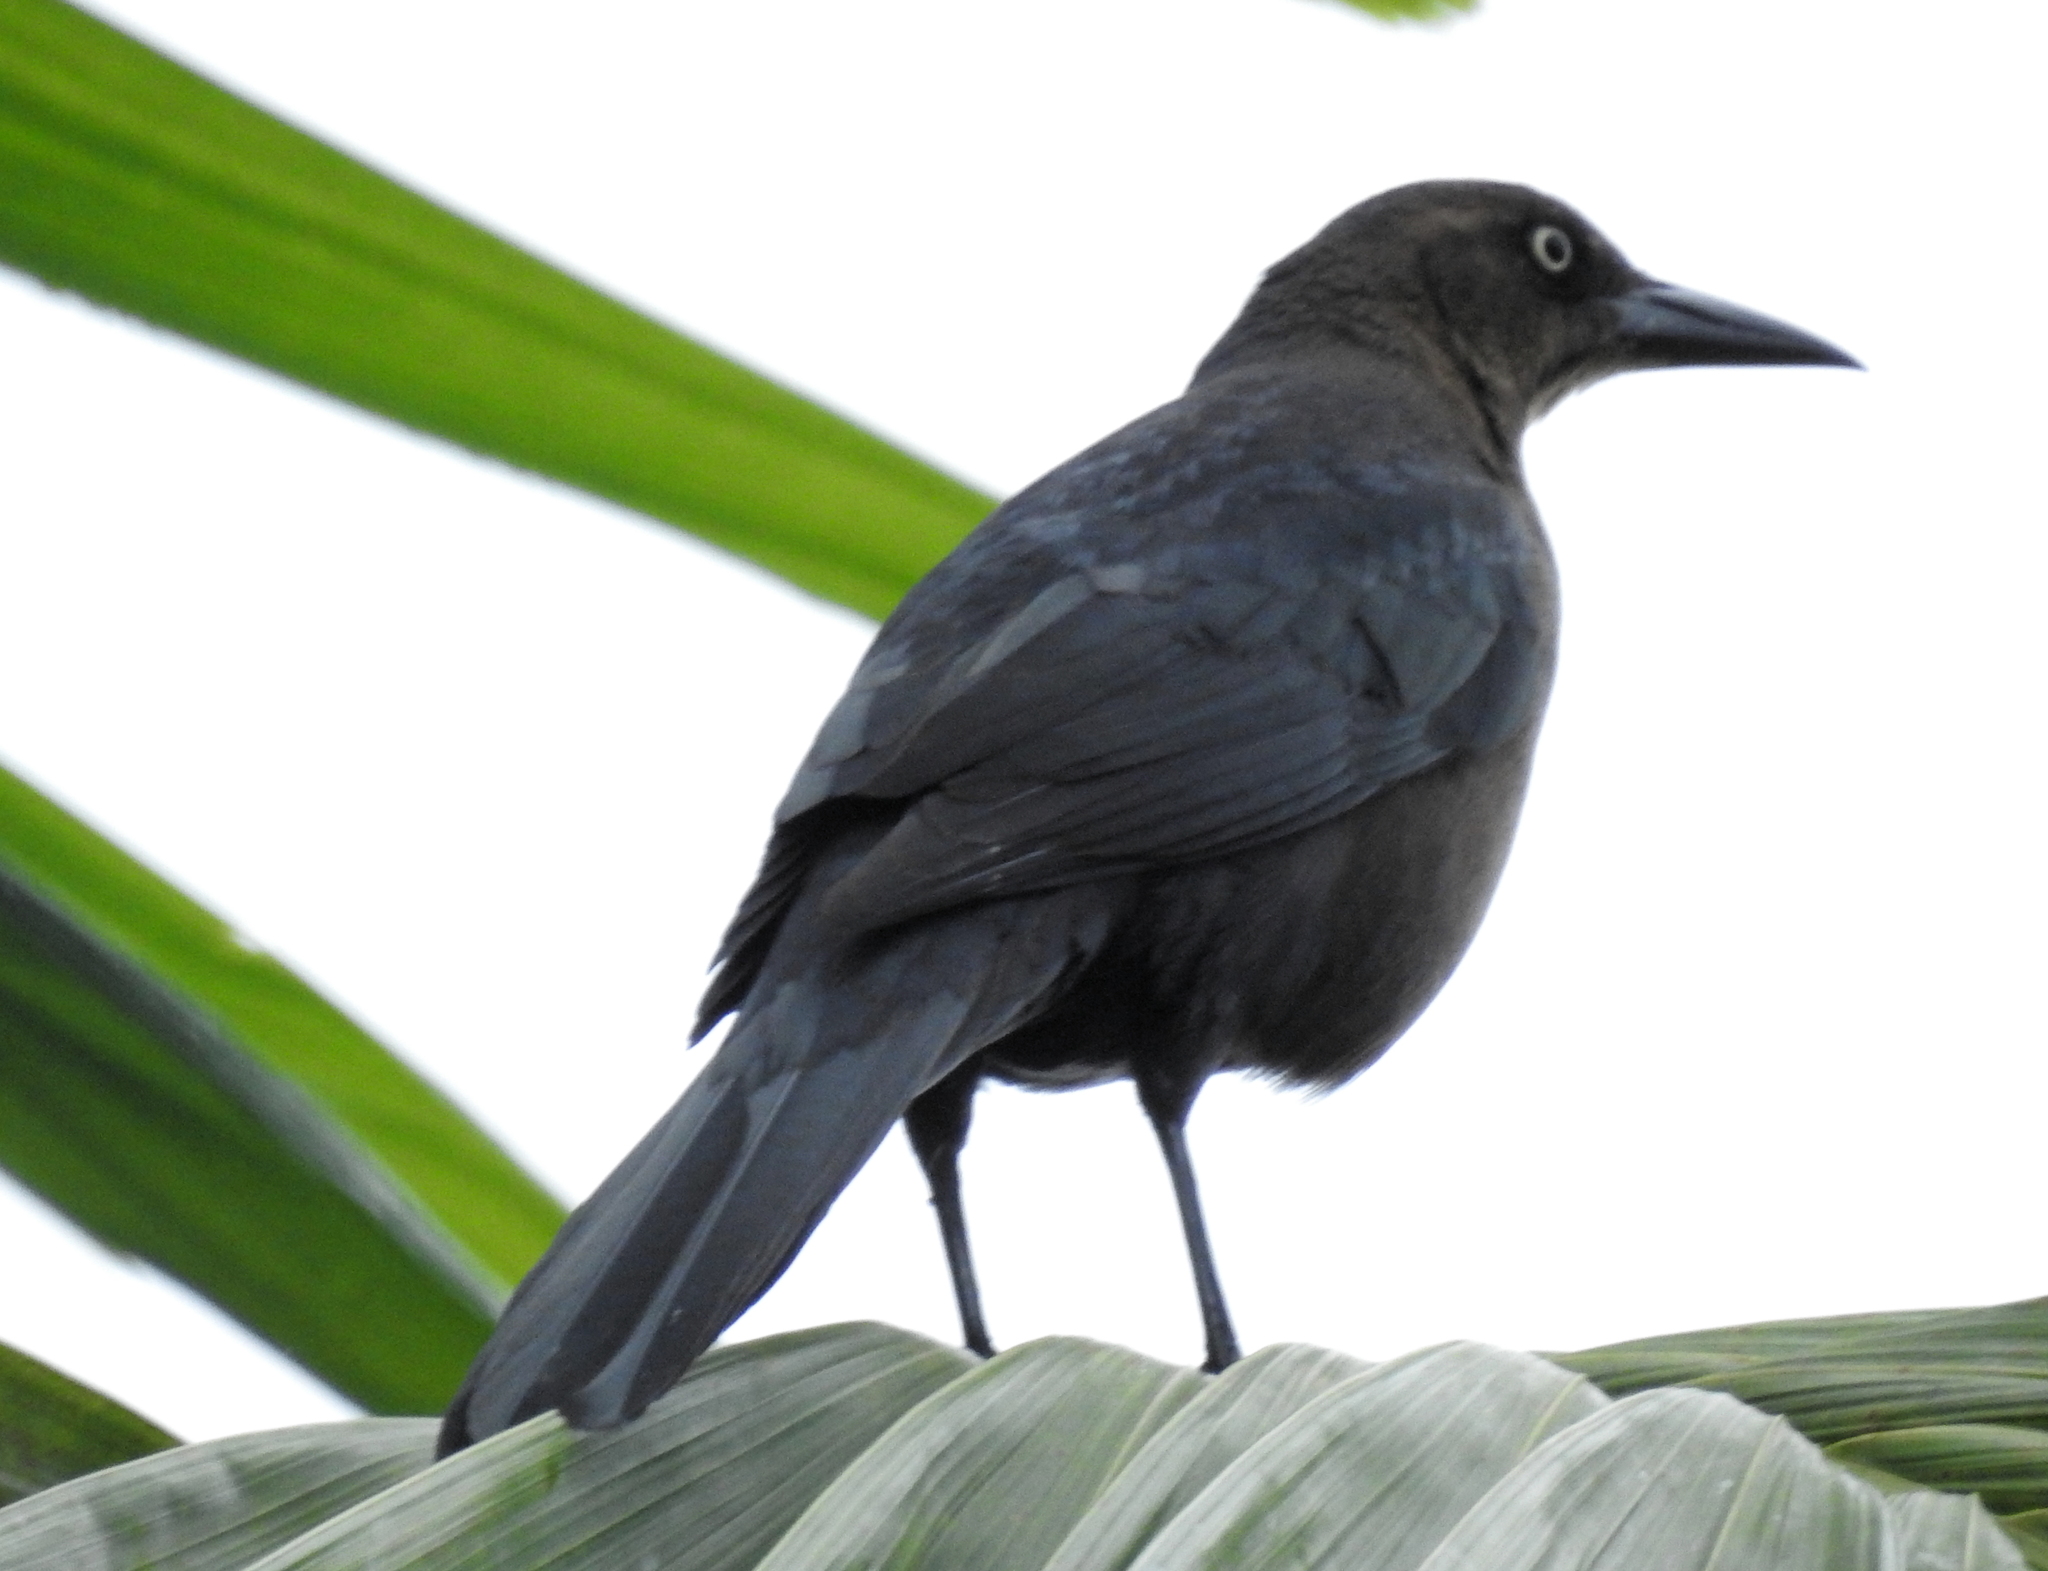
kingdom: Animalia
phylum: Chordata
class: Aves
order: Passeriformes
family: Icteridae
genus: Quiscalus
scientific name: Quiscalus mexicanus
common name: Great-tailed grackle
